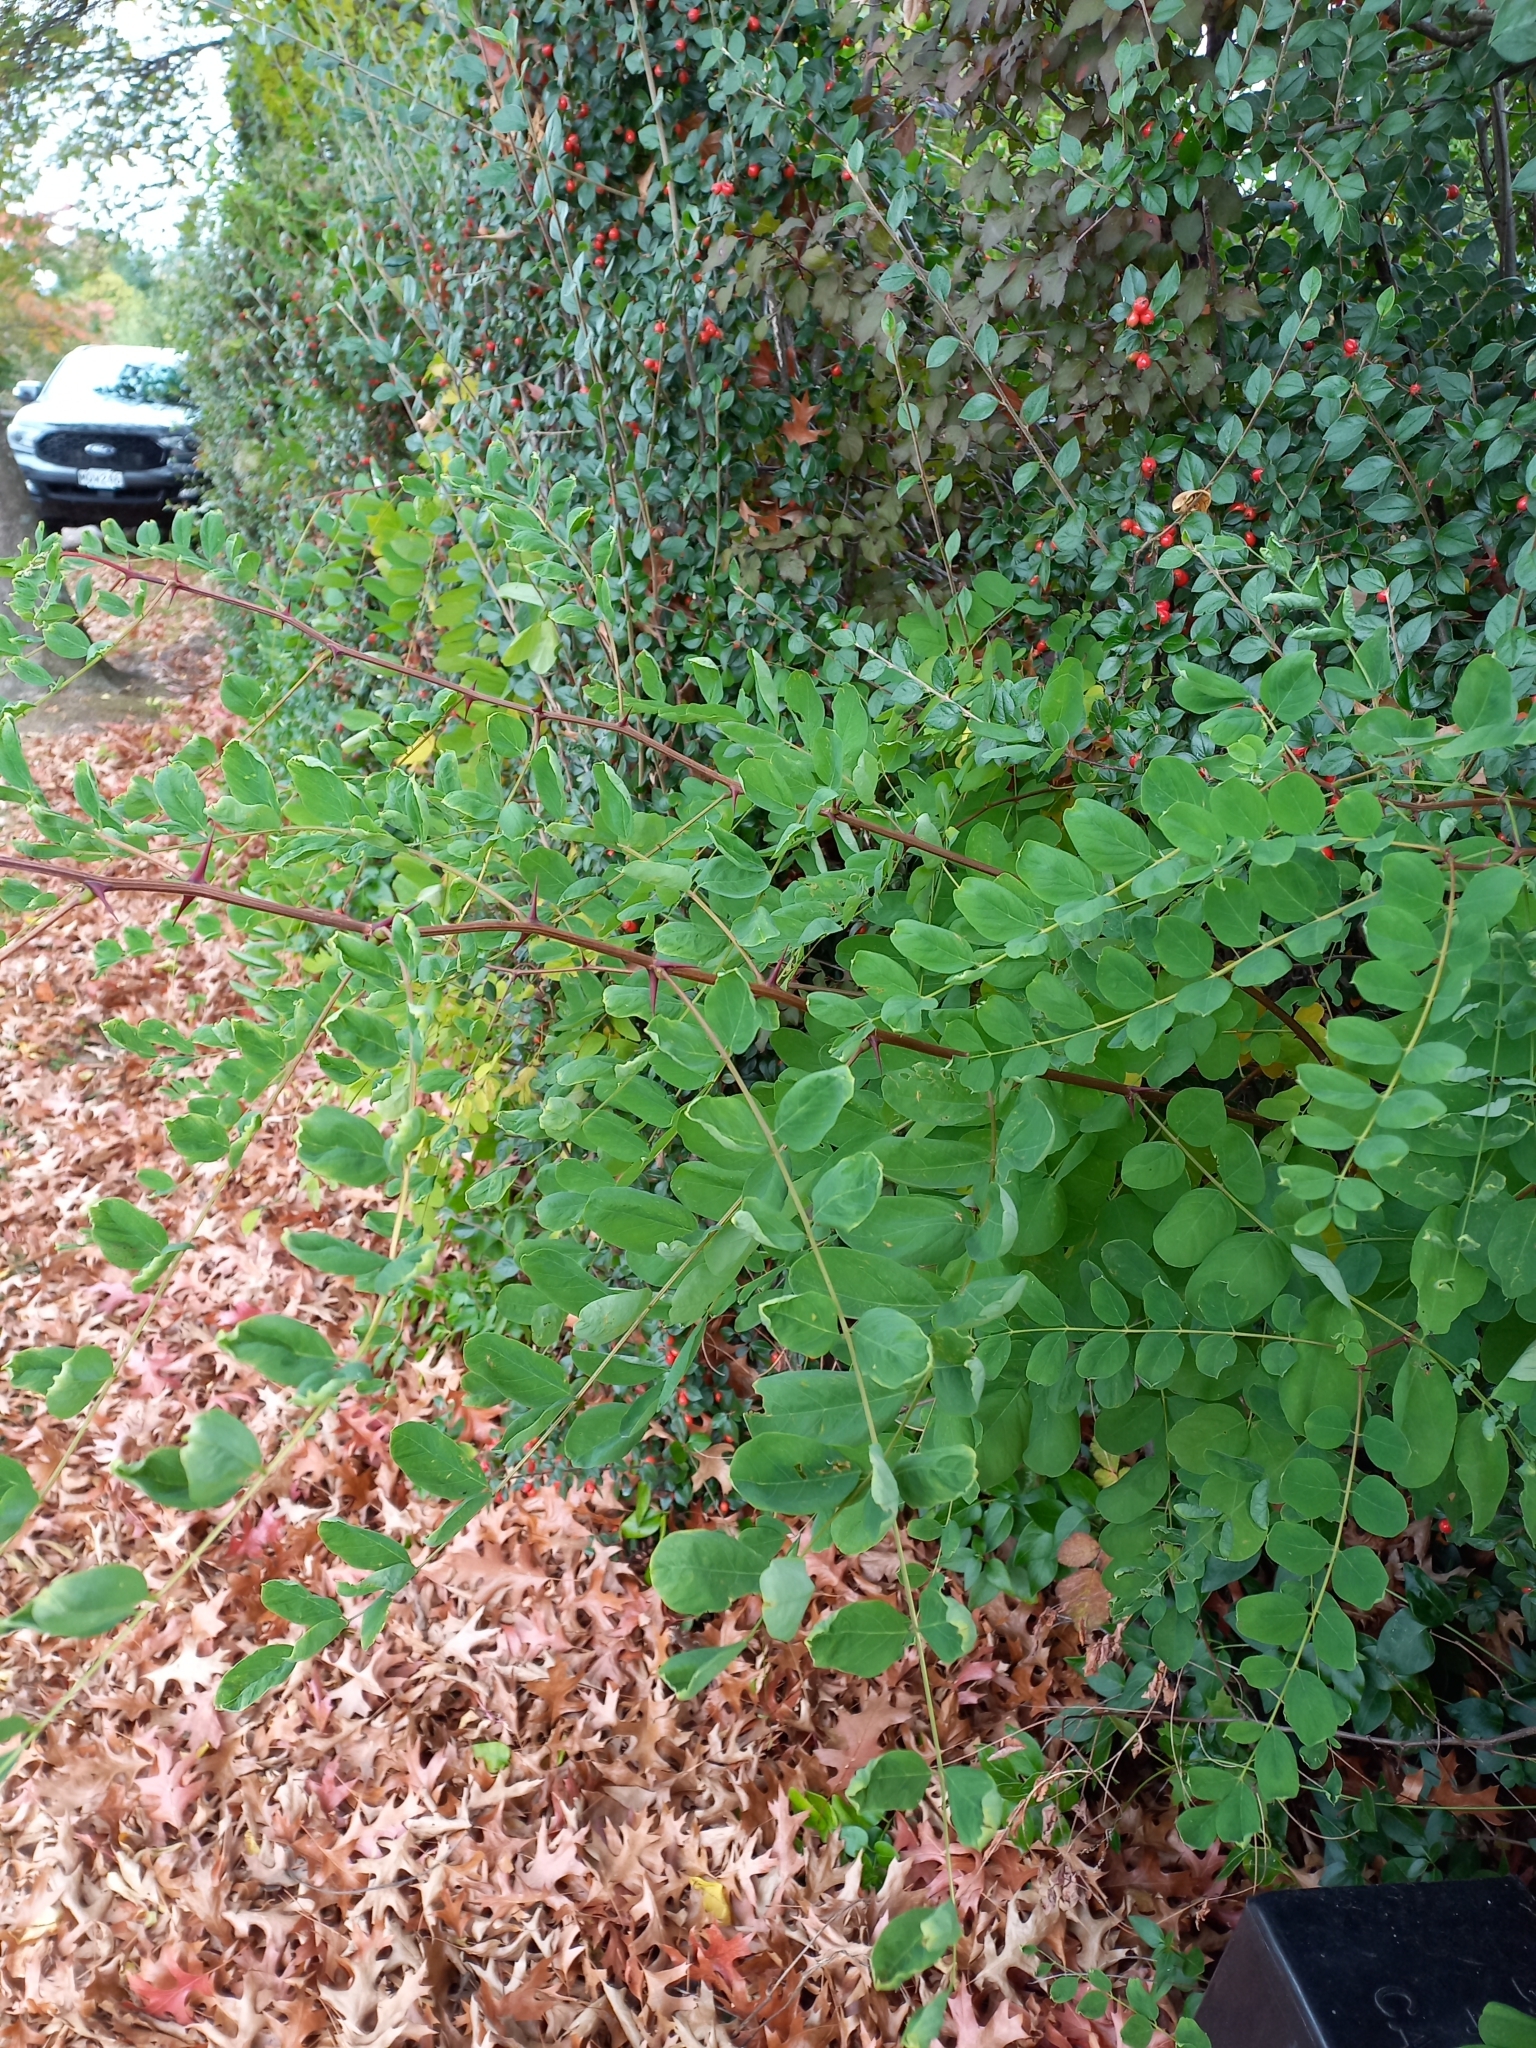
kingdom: Plantae
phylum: Tracheophyta
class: Magnoliopsida
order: Fabales
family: Fabaceae
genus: Robinia
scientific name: Robinia pseudoacacia
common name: Black locust
